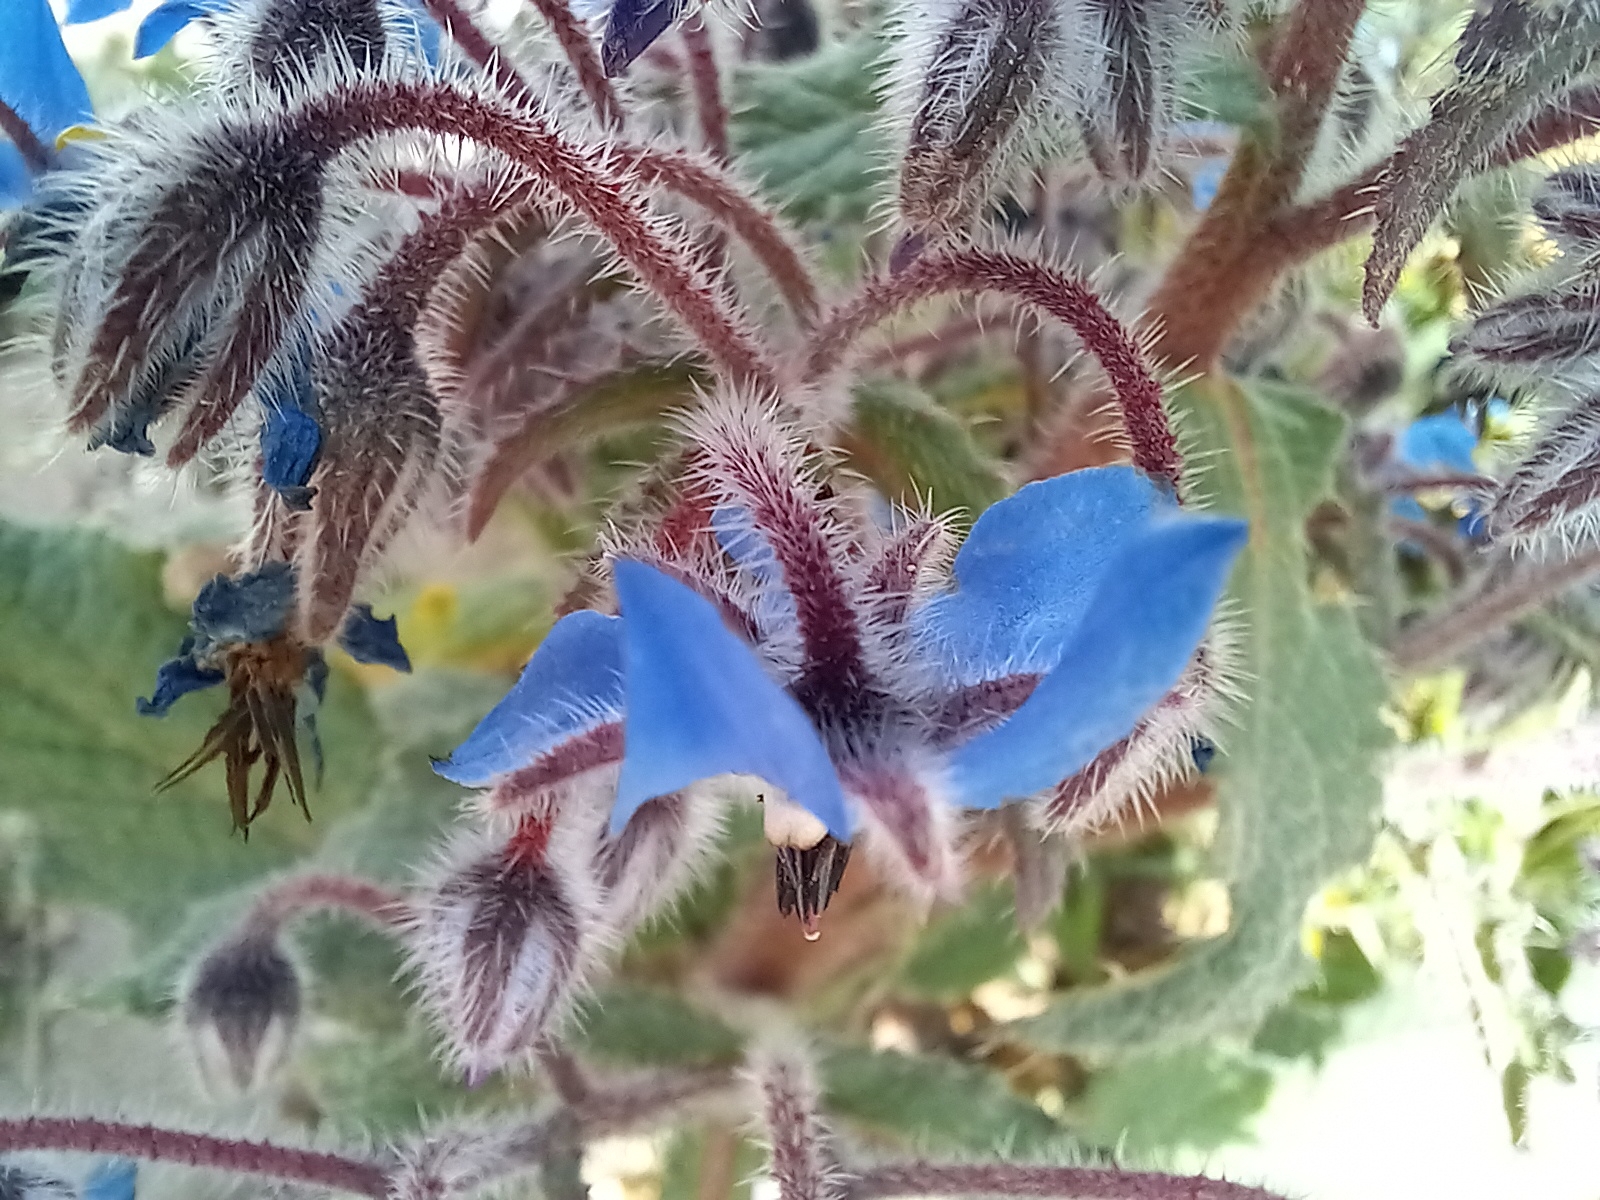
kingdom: Plantae
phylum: Tracheophyta
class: Magnoliopsida
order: Boraginales
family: Boraginaceae
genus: Borago
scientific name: Borago officinalis
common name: Borage
